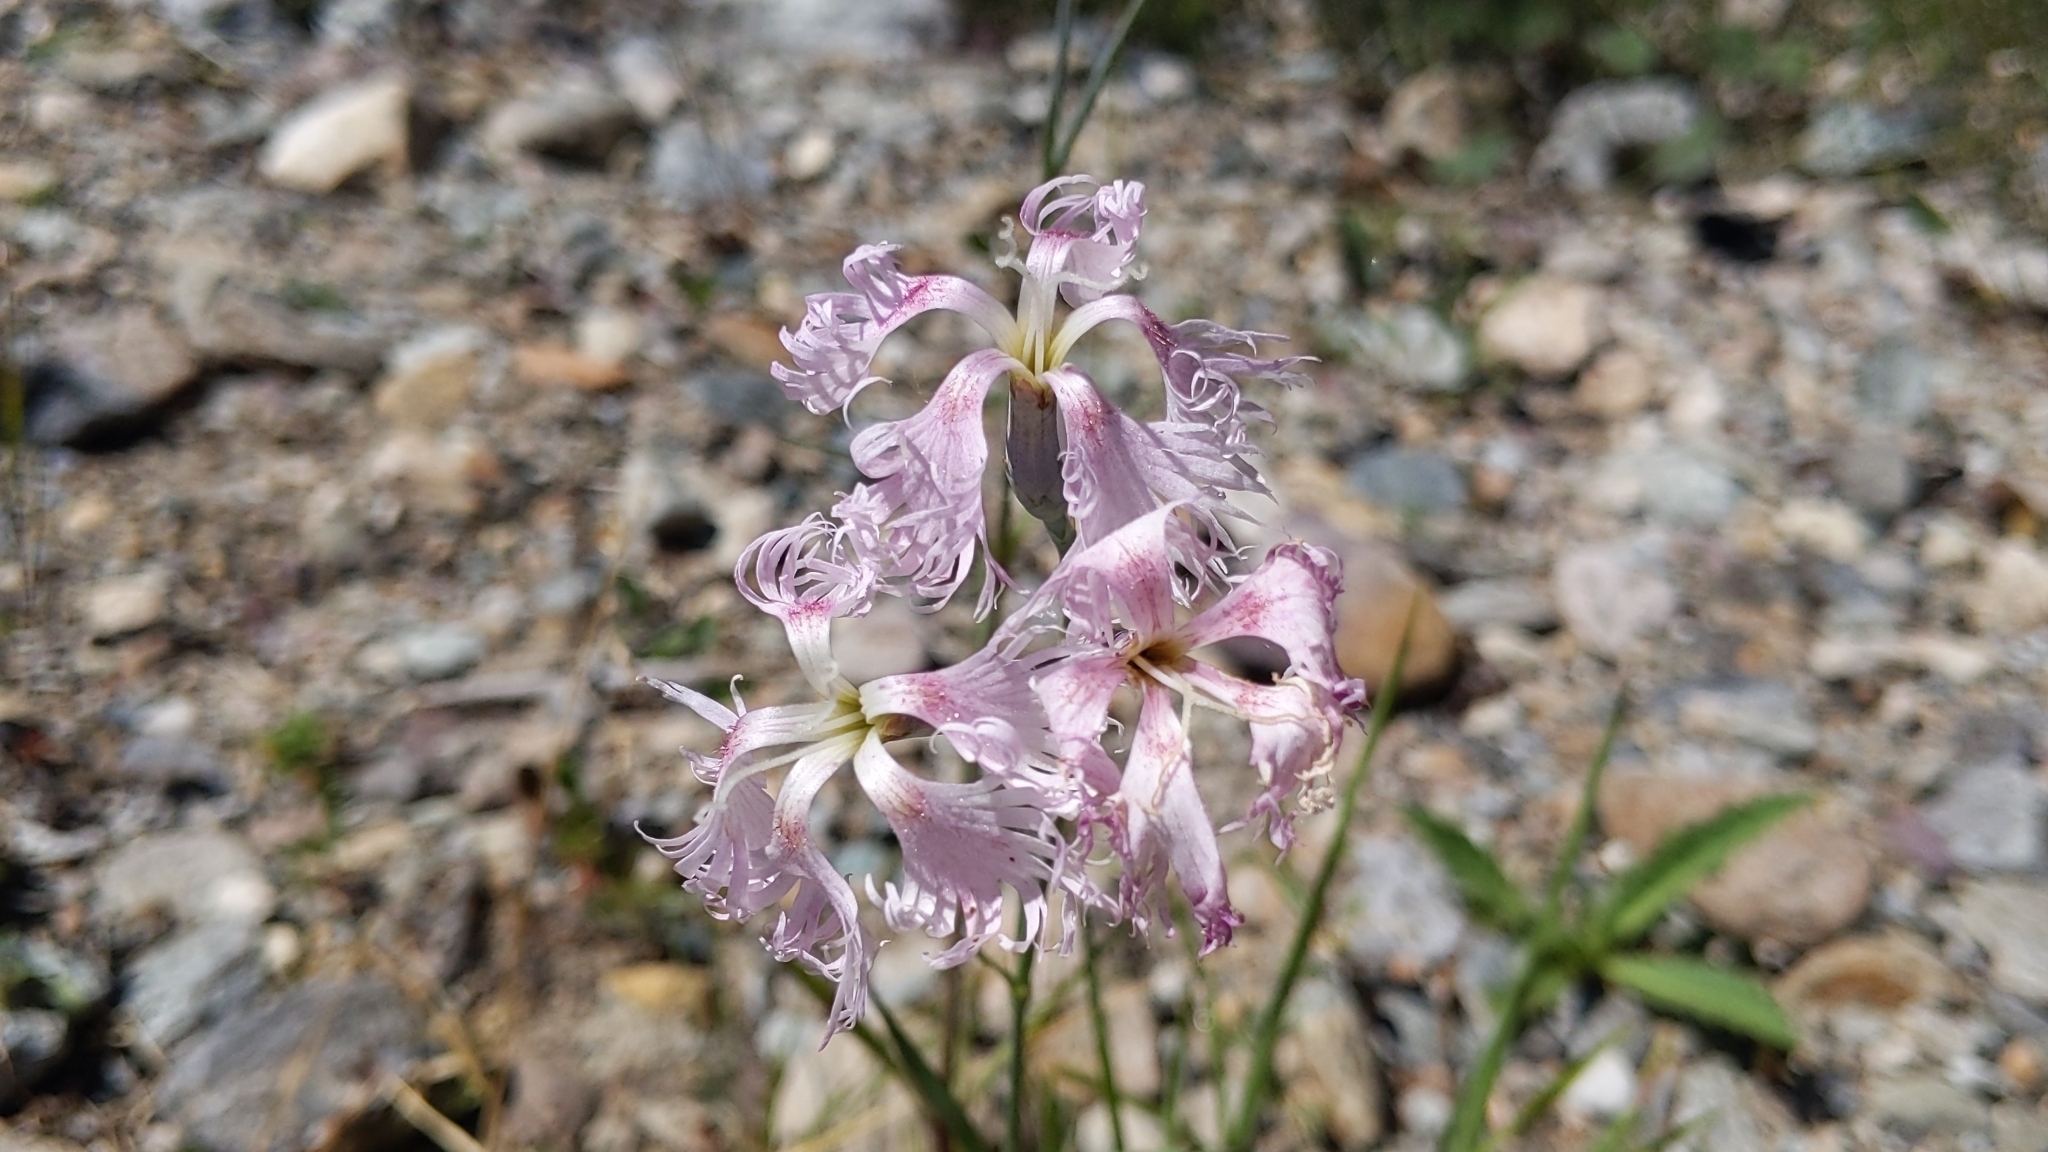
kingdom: Plantae
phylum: Tracheophyta
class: Magnoliopsida
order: Caryophyllales
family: Caryophyllaceae
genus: Dianthus
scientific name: Dianthus superbus
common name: Fringed pink
